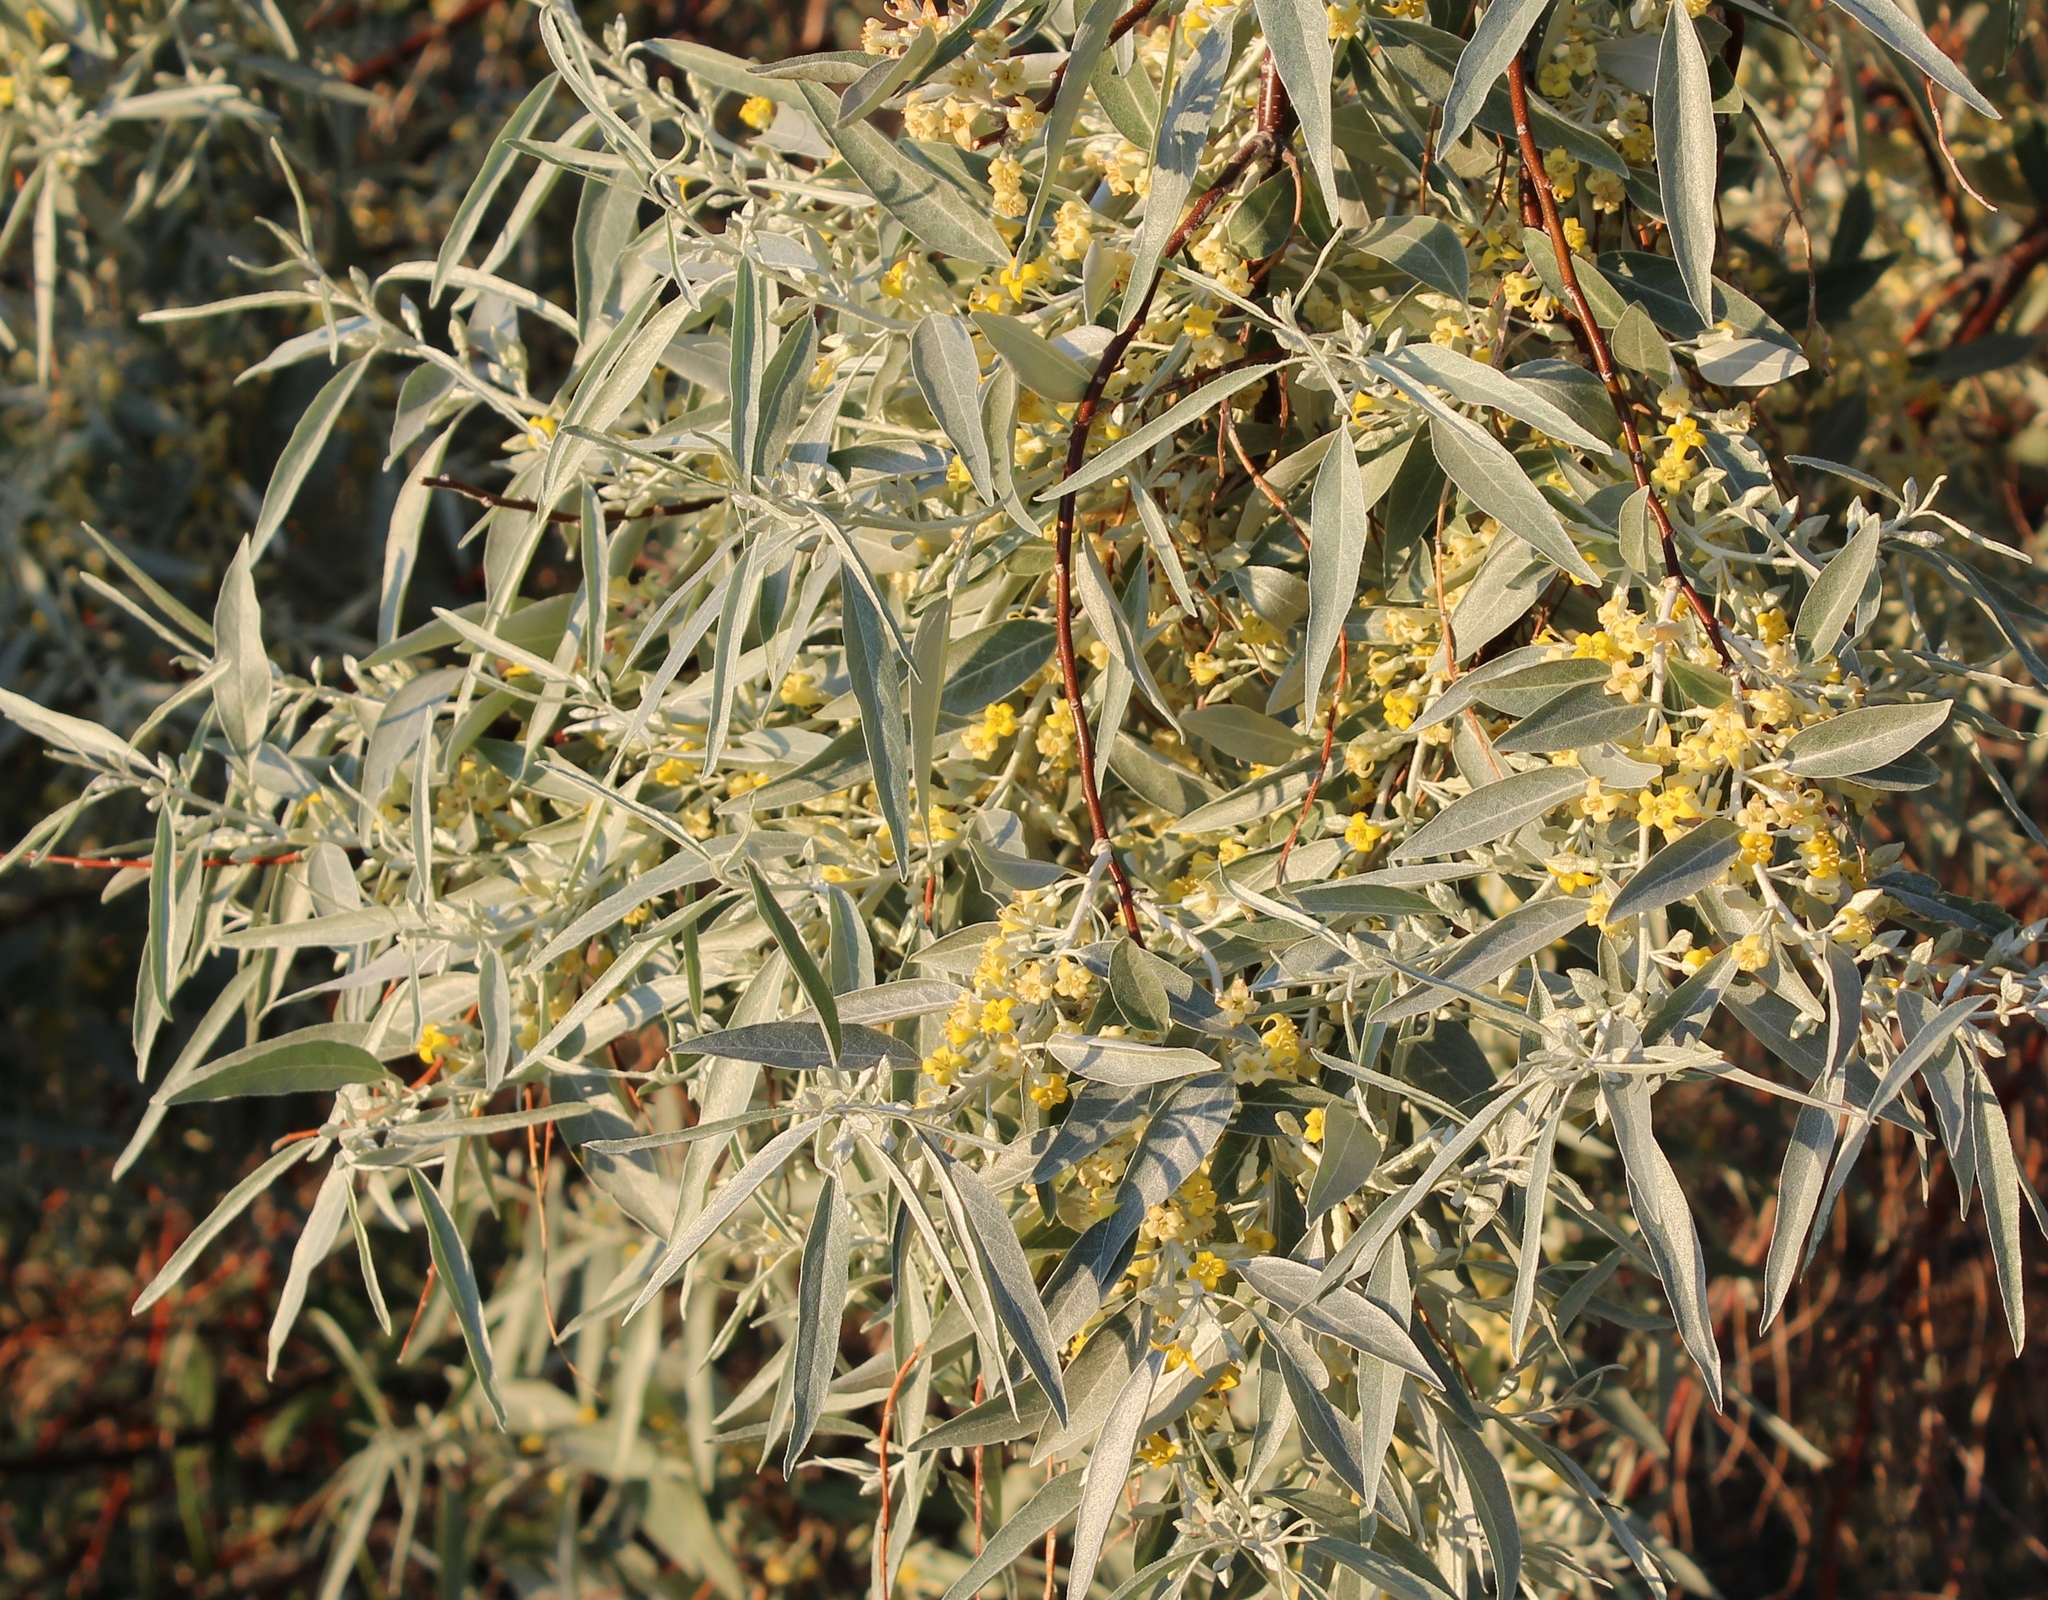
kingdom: Plantae
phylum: Tracheophyta
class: Magnoliopsida
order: Rosales
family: Elaeagnaceae
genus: Elaeagnus
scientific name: Elaeagnus angustifolia
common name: Russian olive
